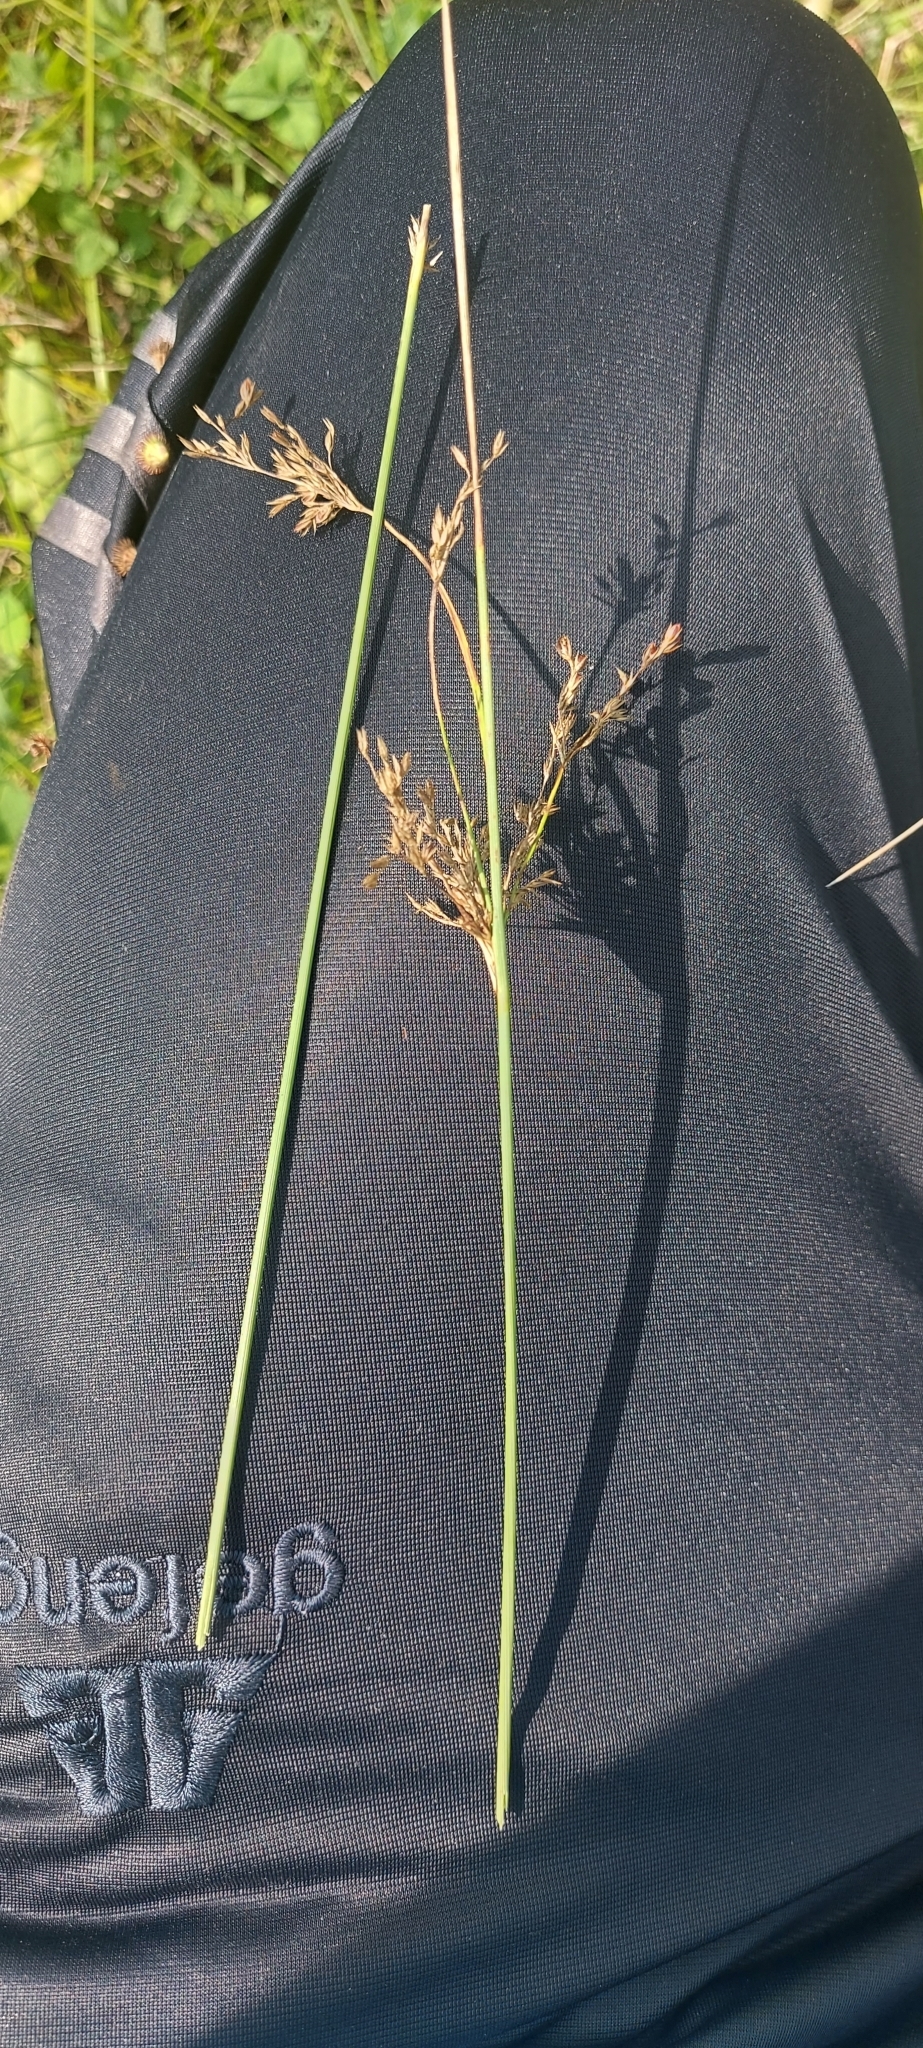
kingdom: Plantae
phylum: Tracheophyta
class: Liliopsida
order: Poales
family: Juncaceae
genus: Juncus
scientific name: Juncus inflexus
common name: Hard rush
